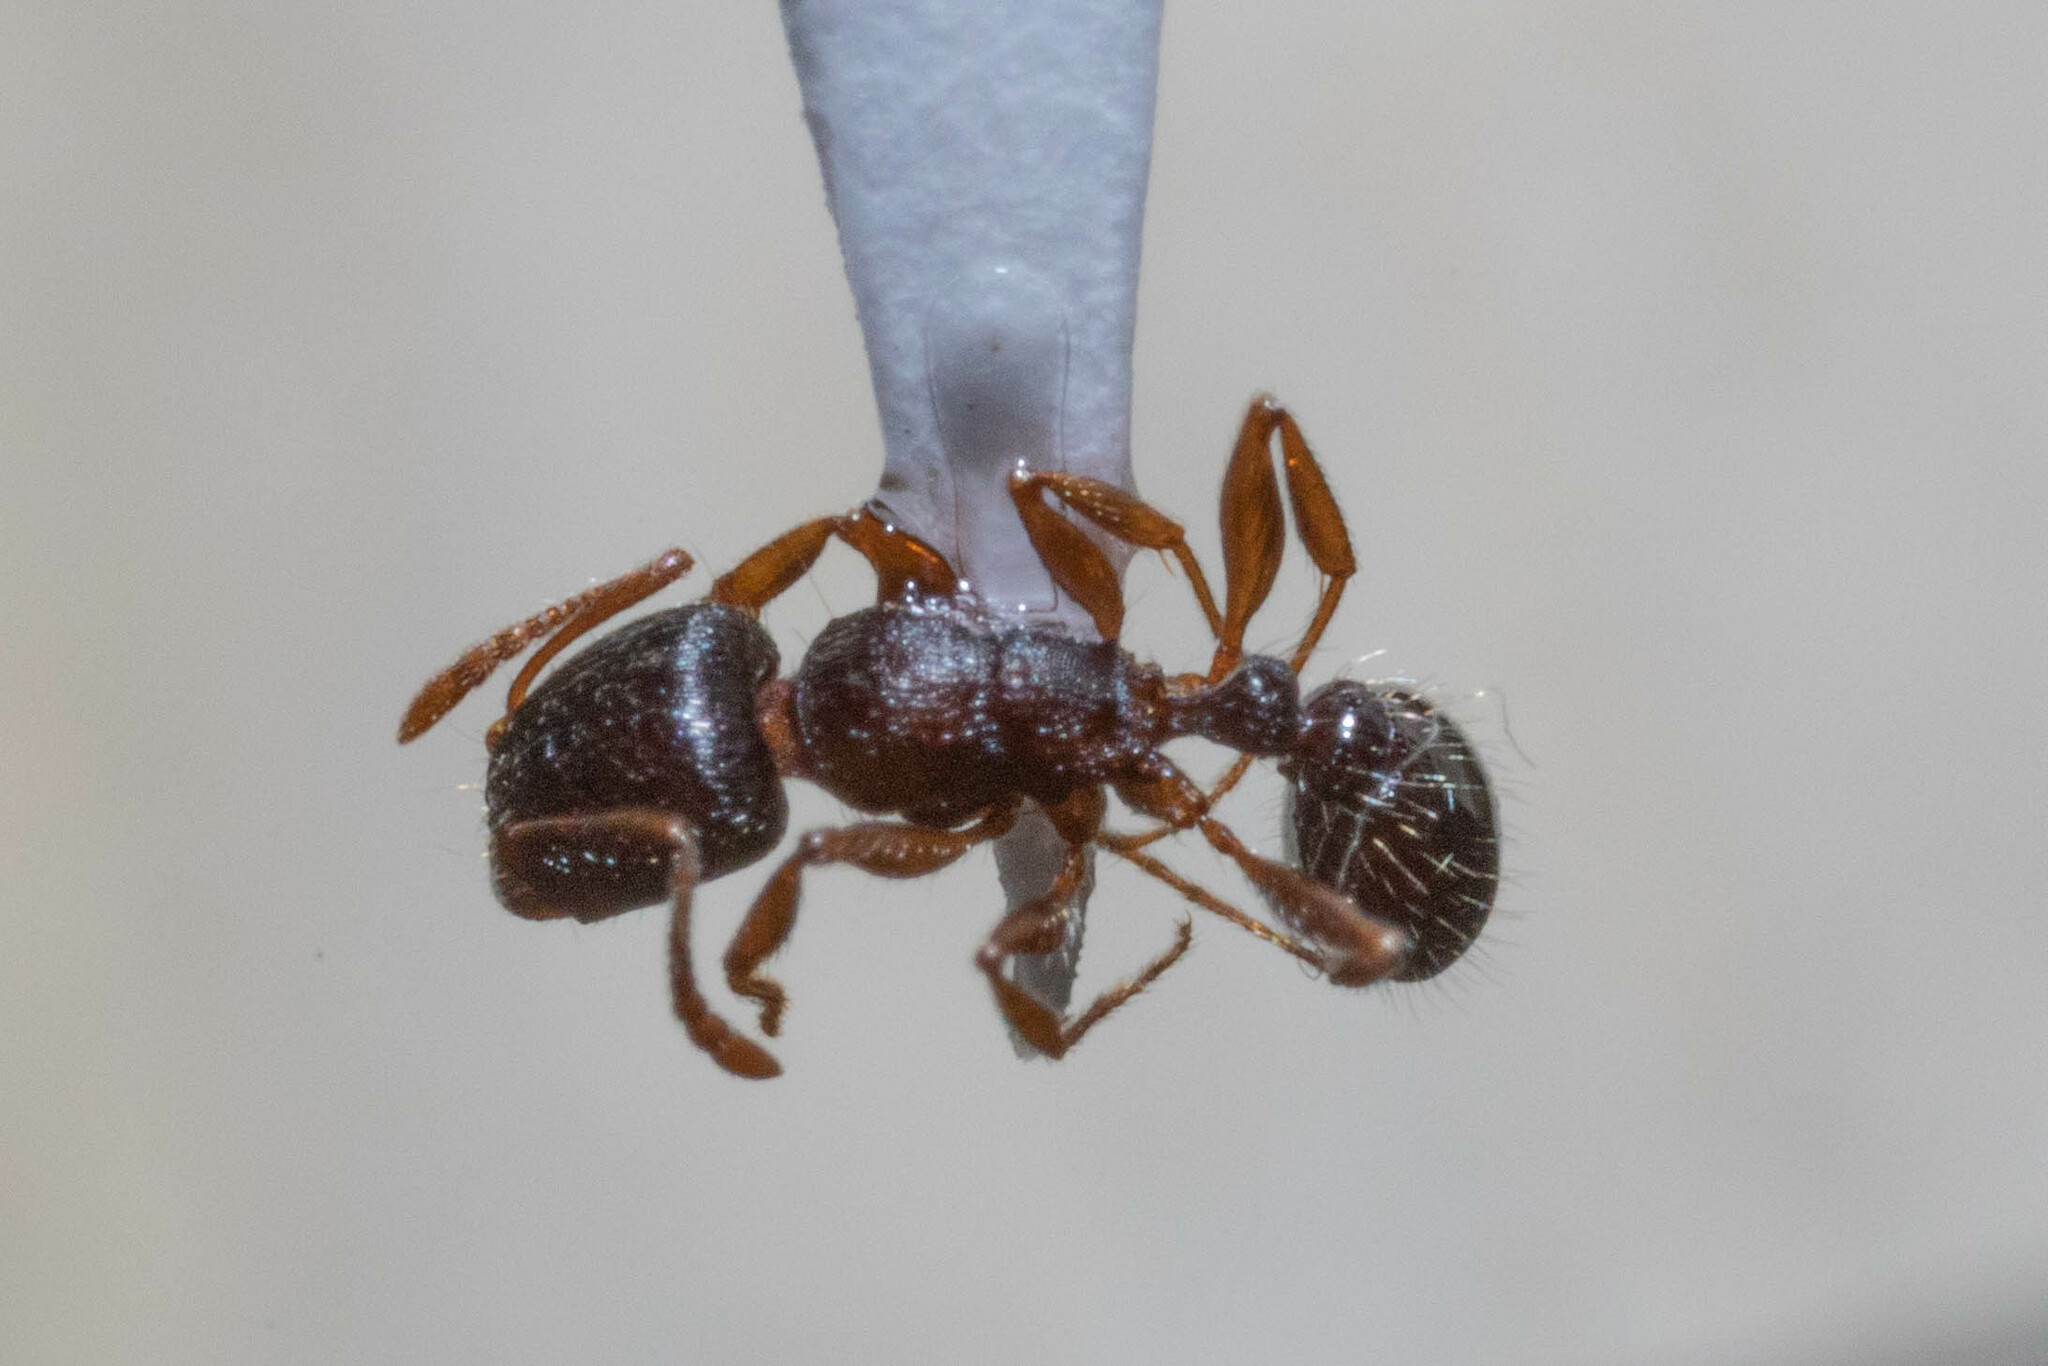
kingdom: Animalia
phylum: Arthropoda
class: Insecta
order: Hymenoptera
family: Formicidae
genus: Tetramorium
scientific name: Tetramorium immigrans
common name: Pavement ant
